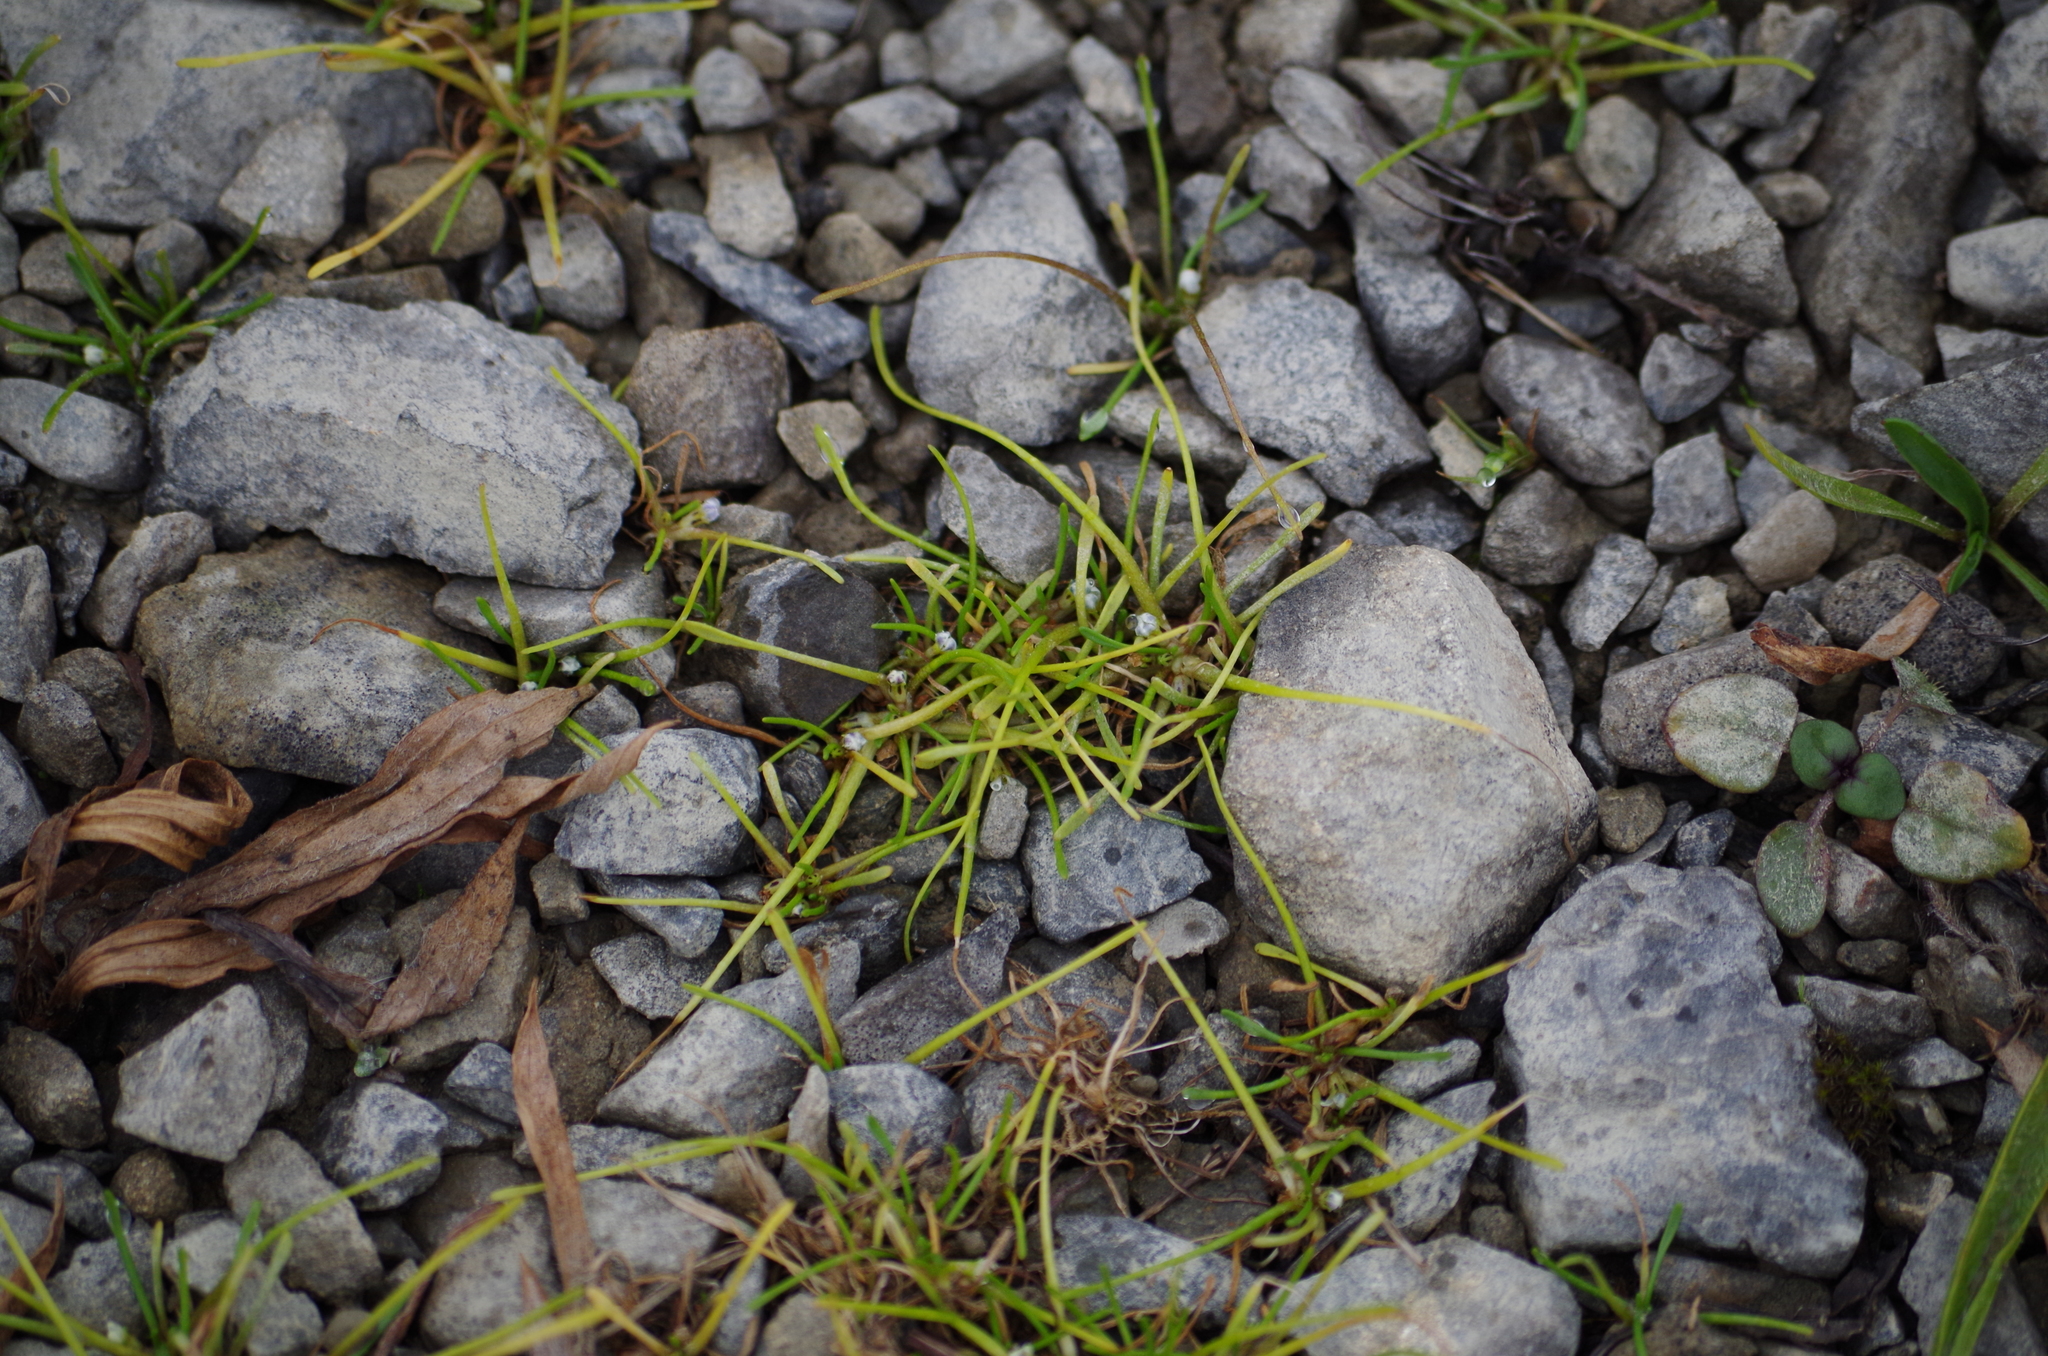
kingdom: Plantae
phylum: Tracheophyta
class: Magnoliopsida
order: Lamiales
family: Scrophulariaceae
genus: Limosella
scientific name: Limosella australis
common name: Welsh mudwort
